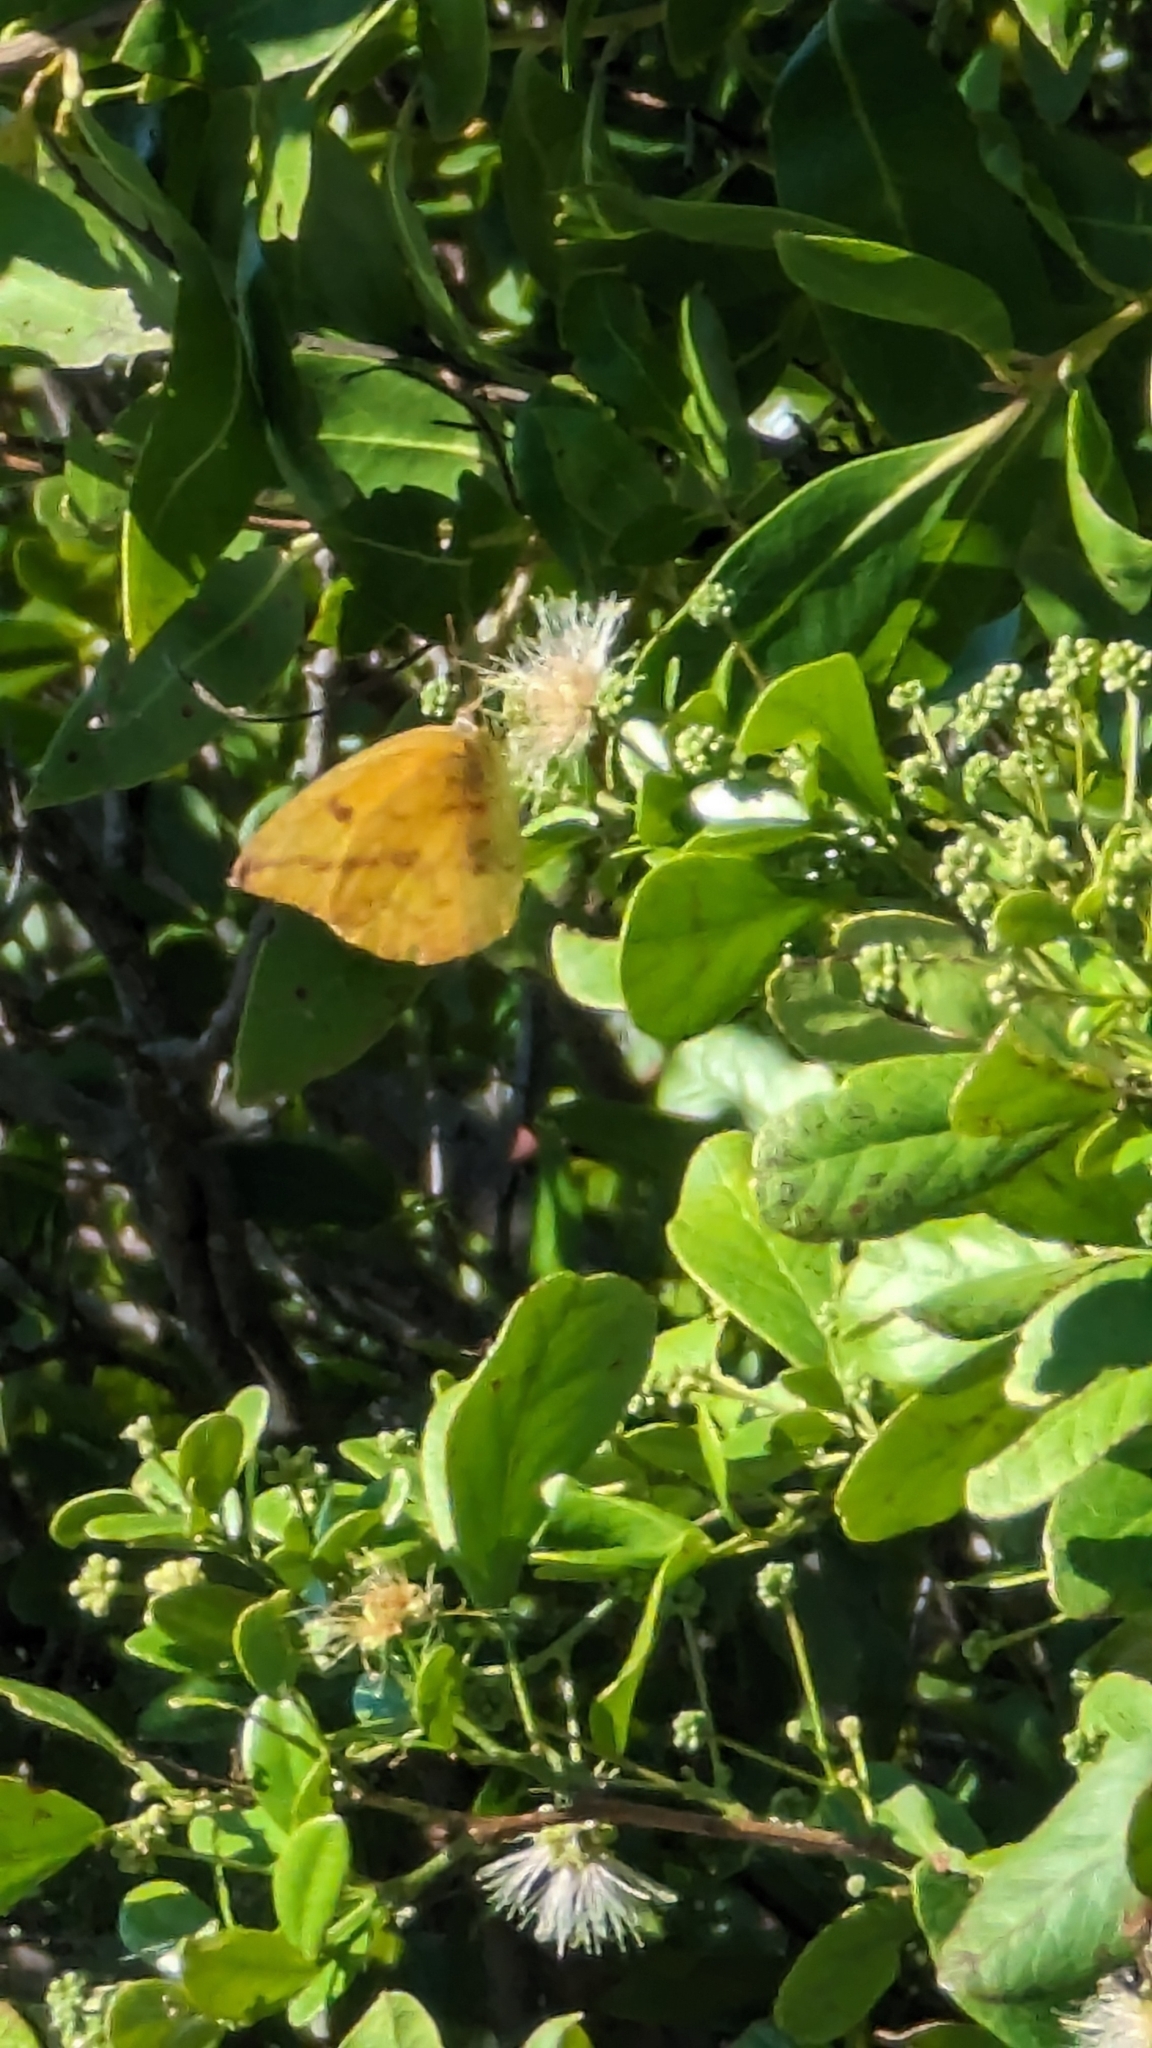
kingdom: Animalia
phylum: Arthropoda
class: Insecta
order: Lepidoptera
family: Pieridae
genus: Phoebis
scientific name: Phoebis agarithe
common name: Large orange sulphur
